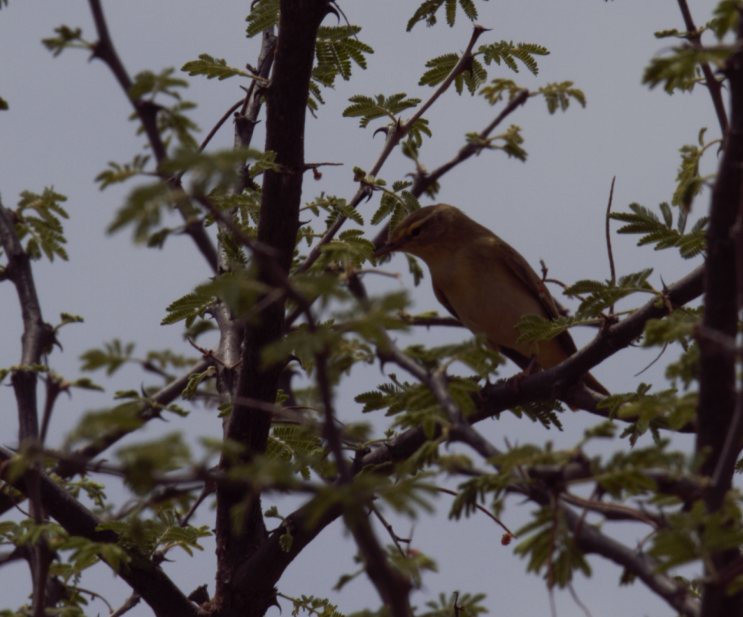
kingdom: Animalia
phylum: Chordata
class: Aves
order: Passeriformes
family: Phylloscopidae
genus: Phylloscopus
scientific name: Phylloscopus trochilus
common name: Willow warbler
